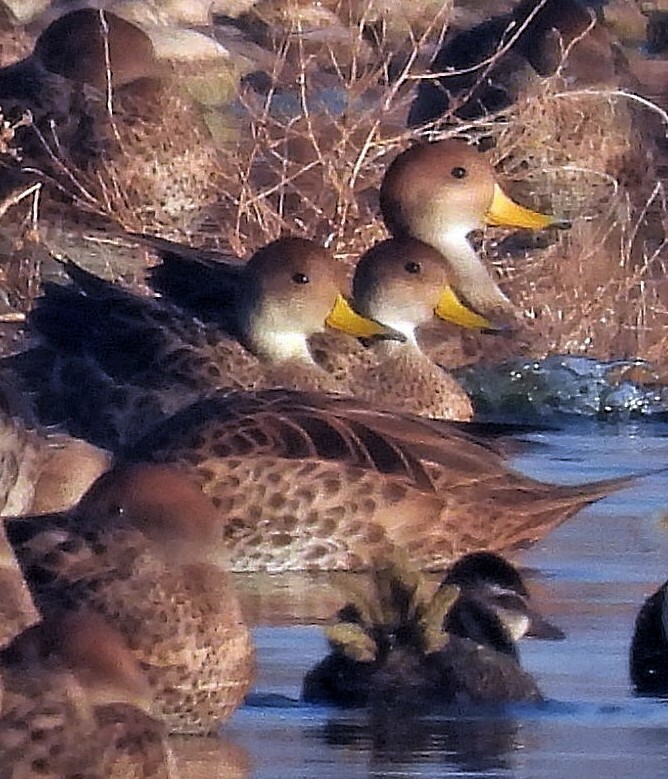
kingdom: Animalia
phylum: Chordata
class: Aves
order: Anseriformes
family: Anatidae
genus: Anas
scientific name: Anas georgica
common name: Yellow-billed pintail
